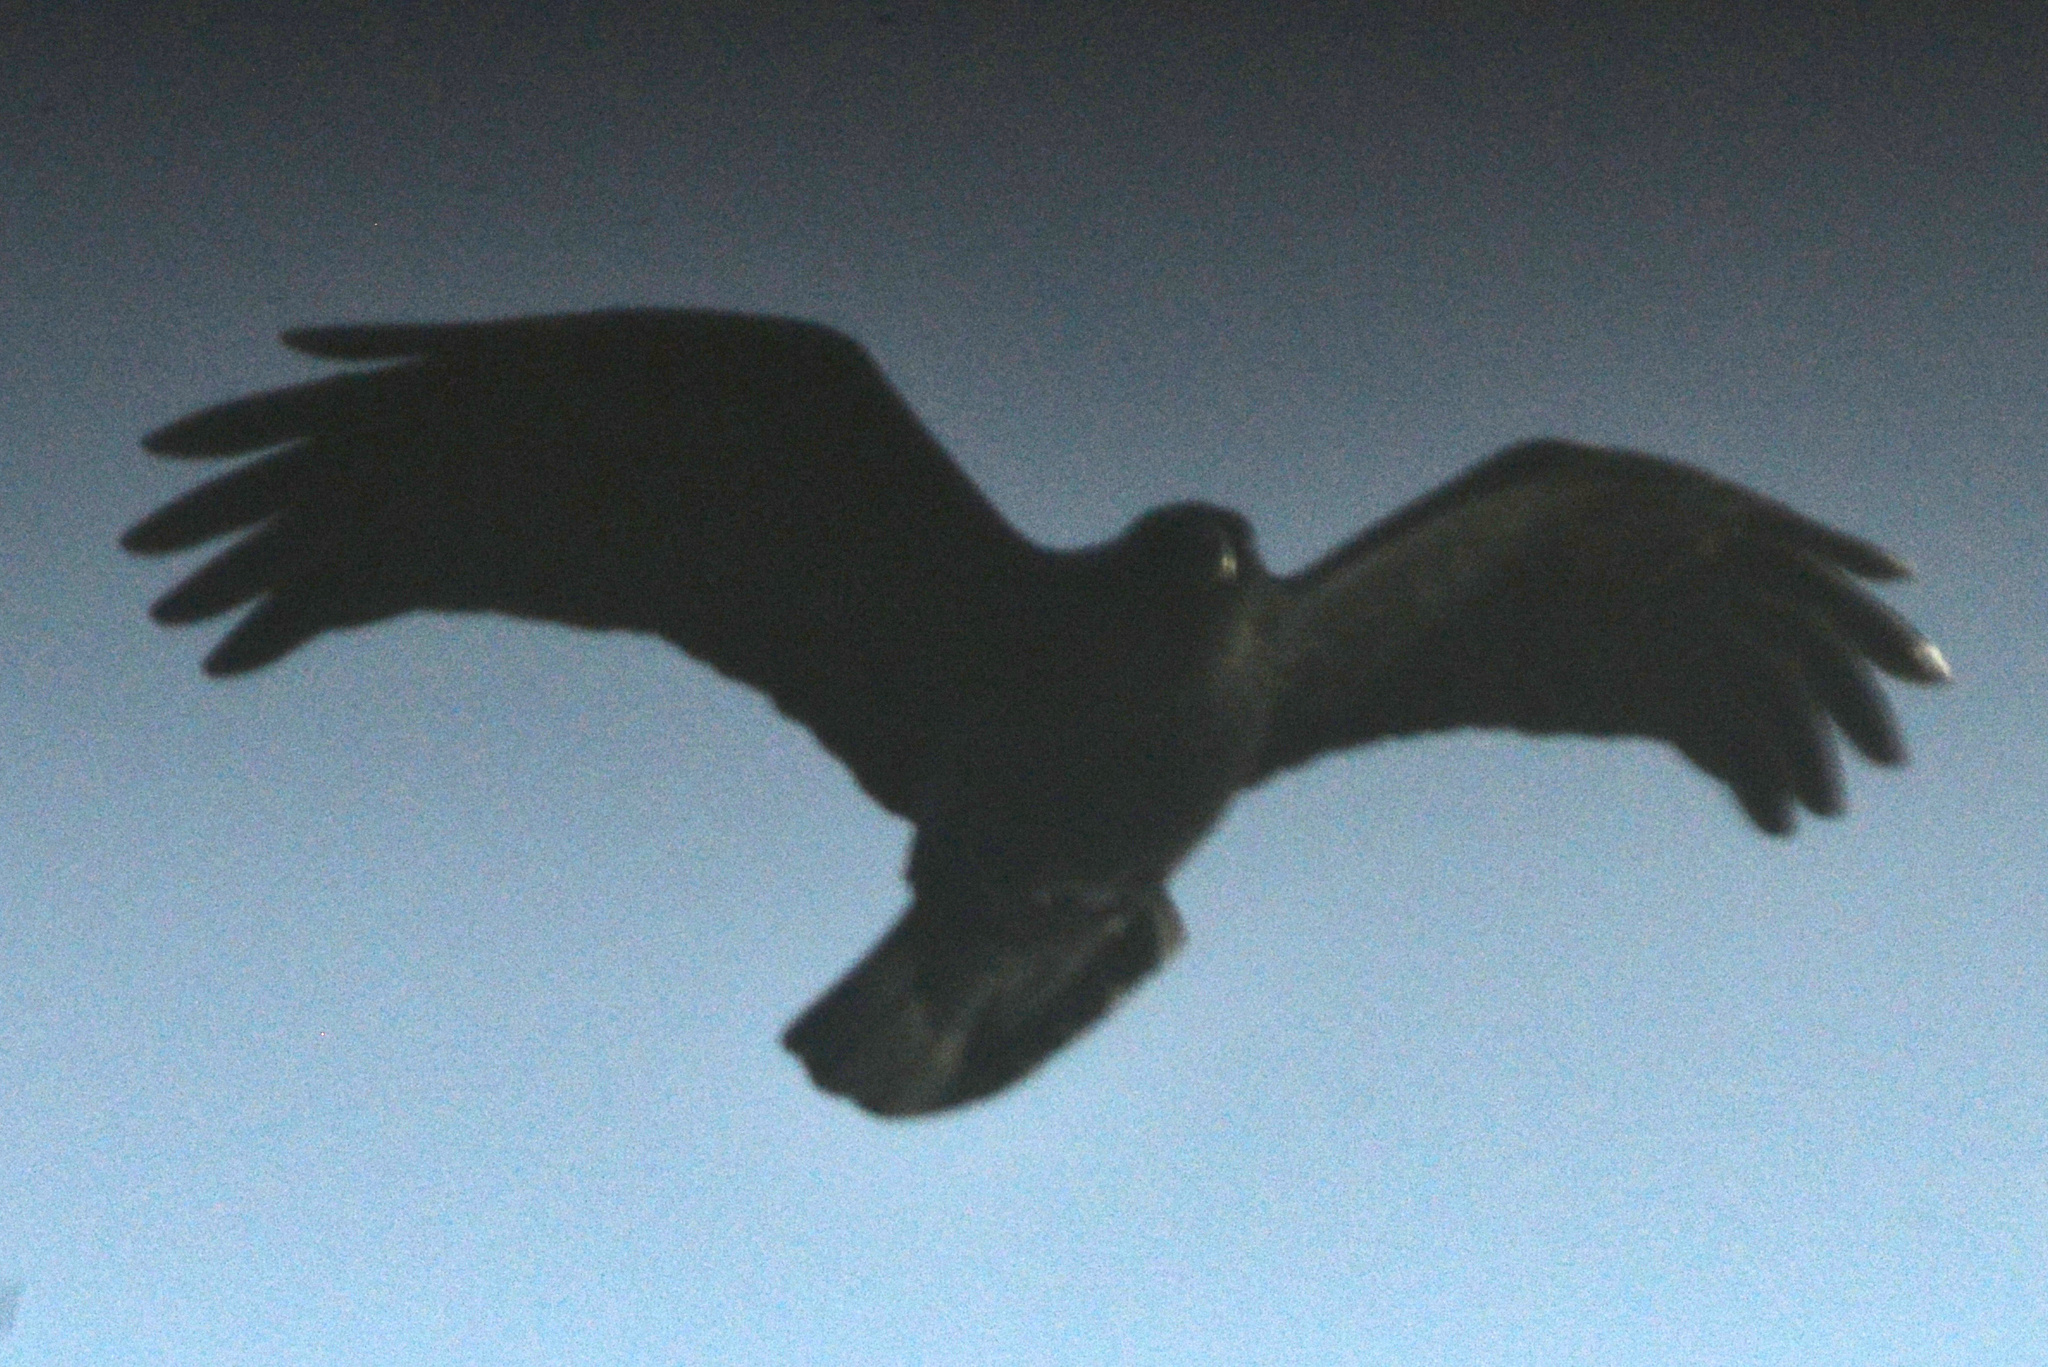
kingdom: Animalia
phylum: Chordata
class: Aves
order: Passeriformes
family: Corvidae
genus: Corvus
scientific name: Corvus corax
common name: Common raven
